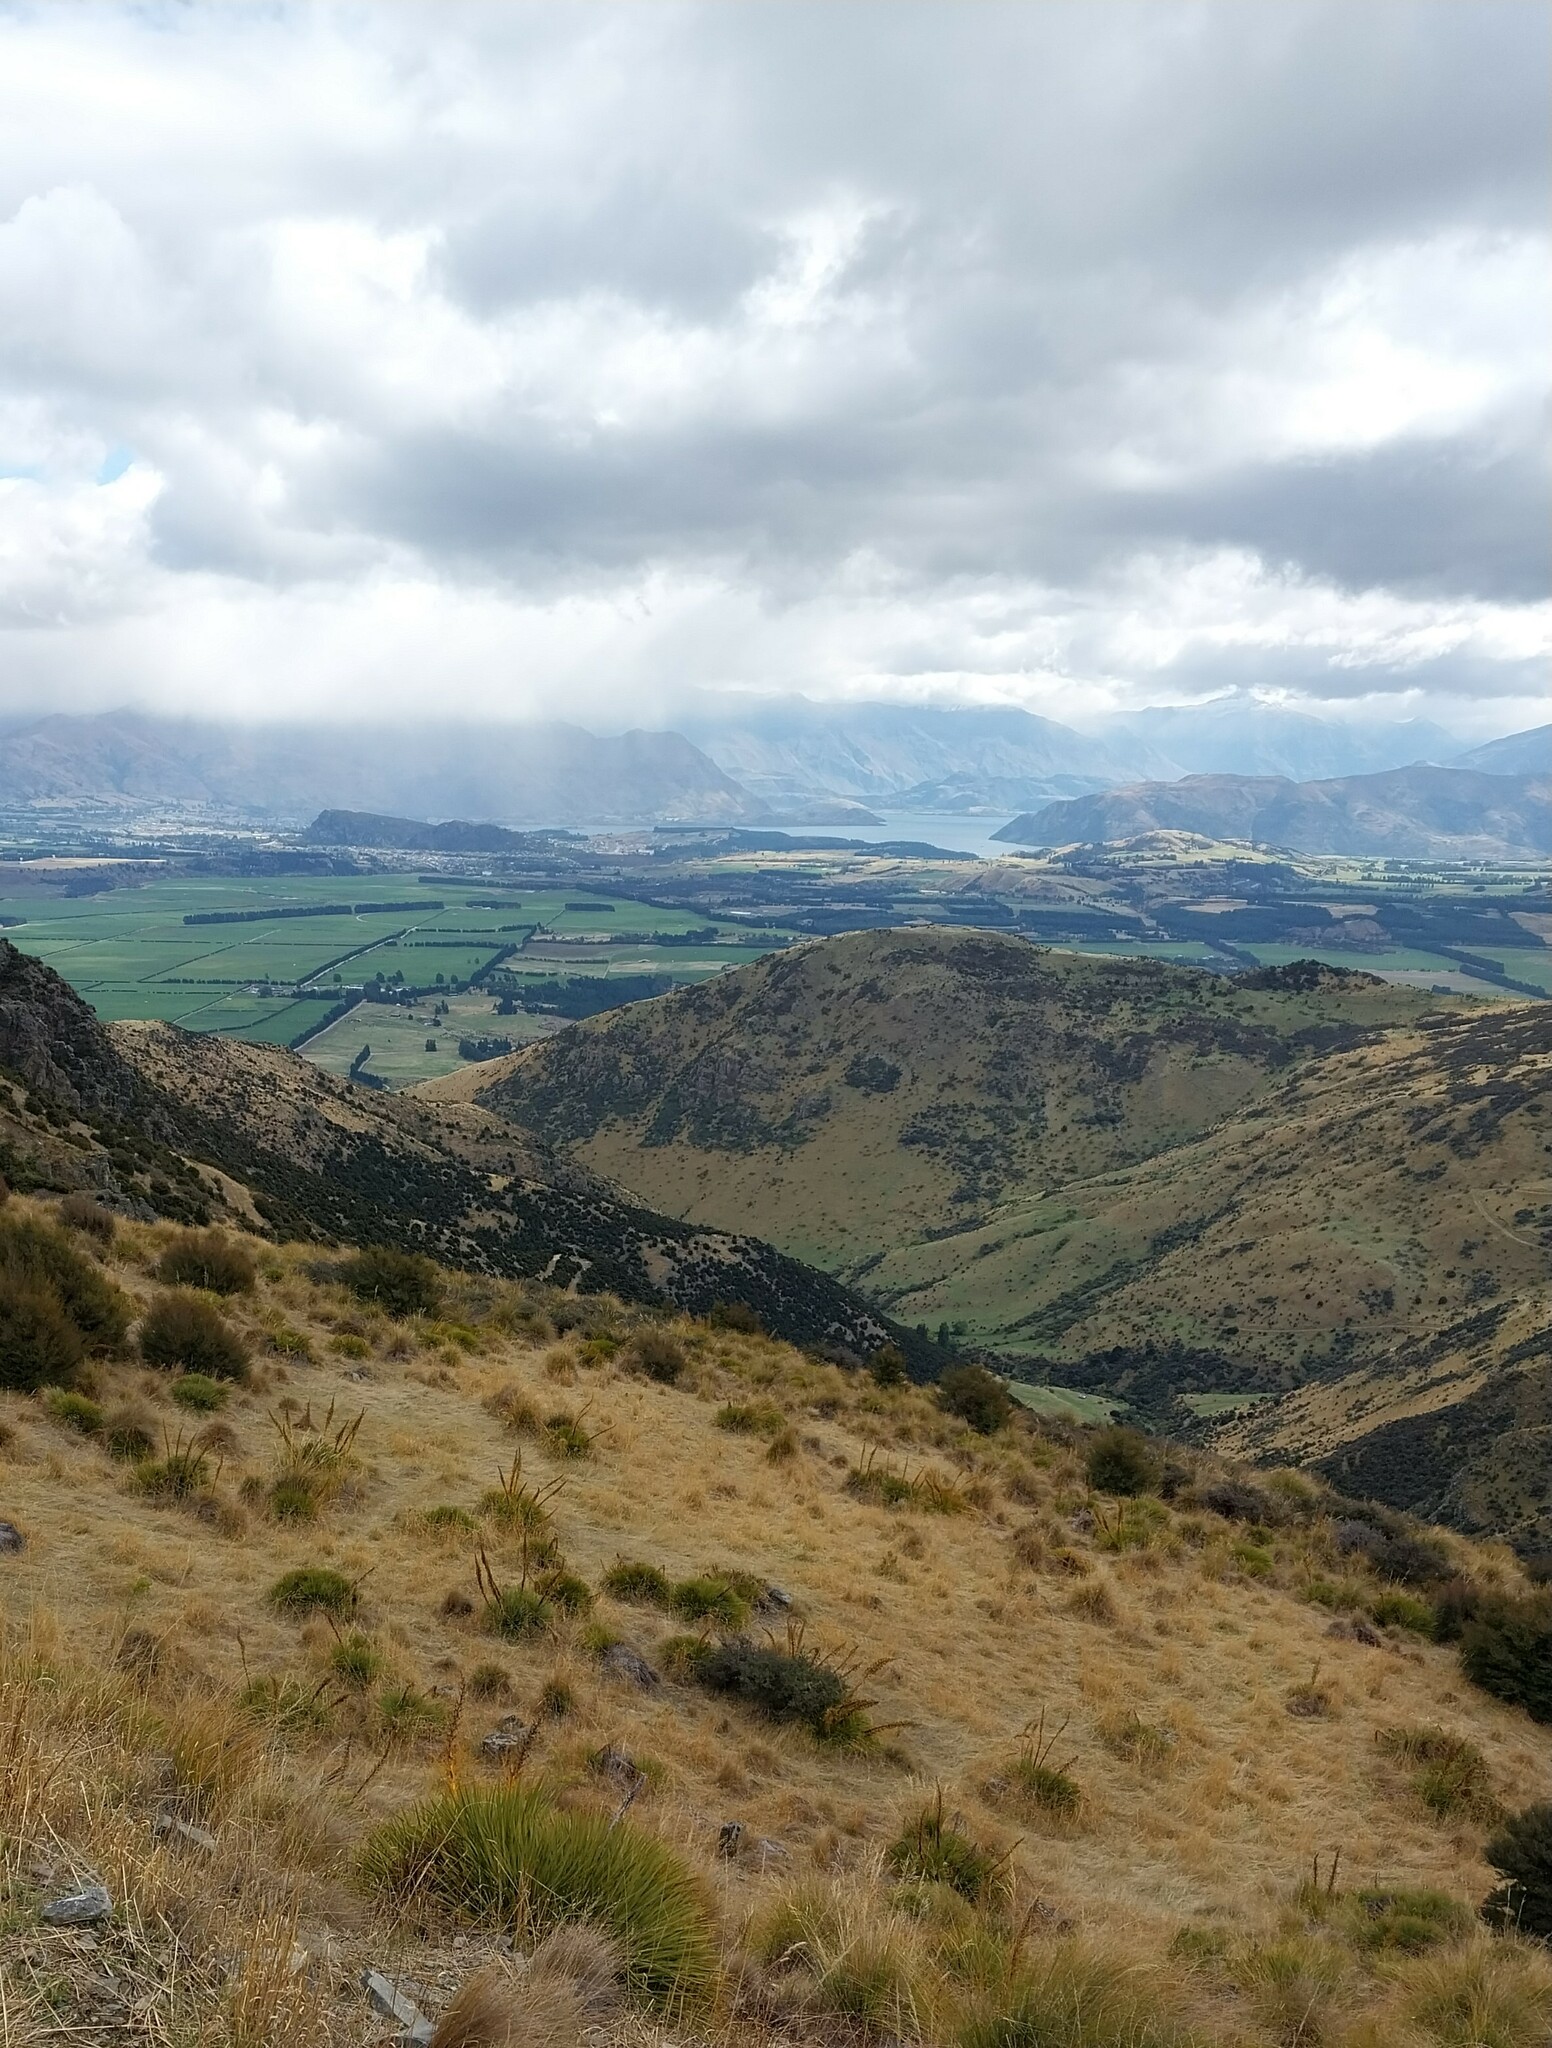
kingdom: Plantae
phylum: Tracheophyta
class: Magnoliopsida
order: Apiales
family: Apiaceae
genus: Aciphylla
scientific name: Aciphylla aurea
